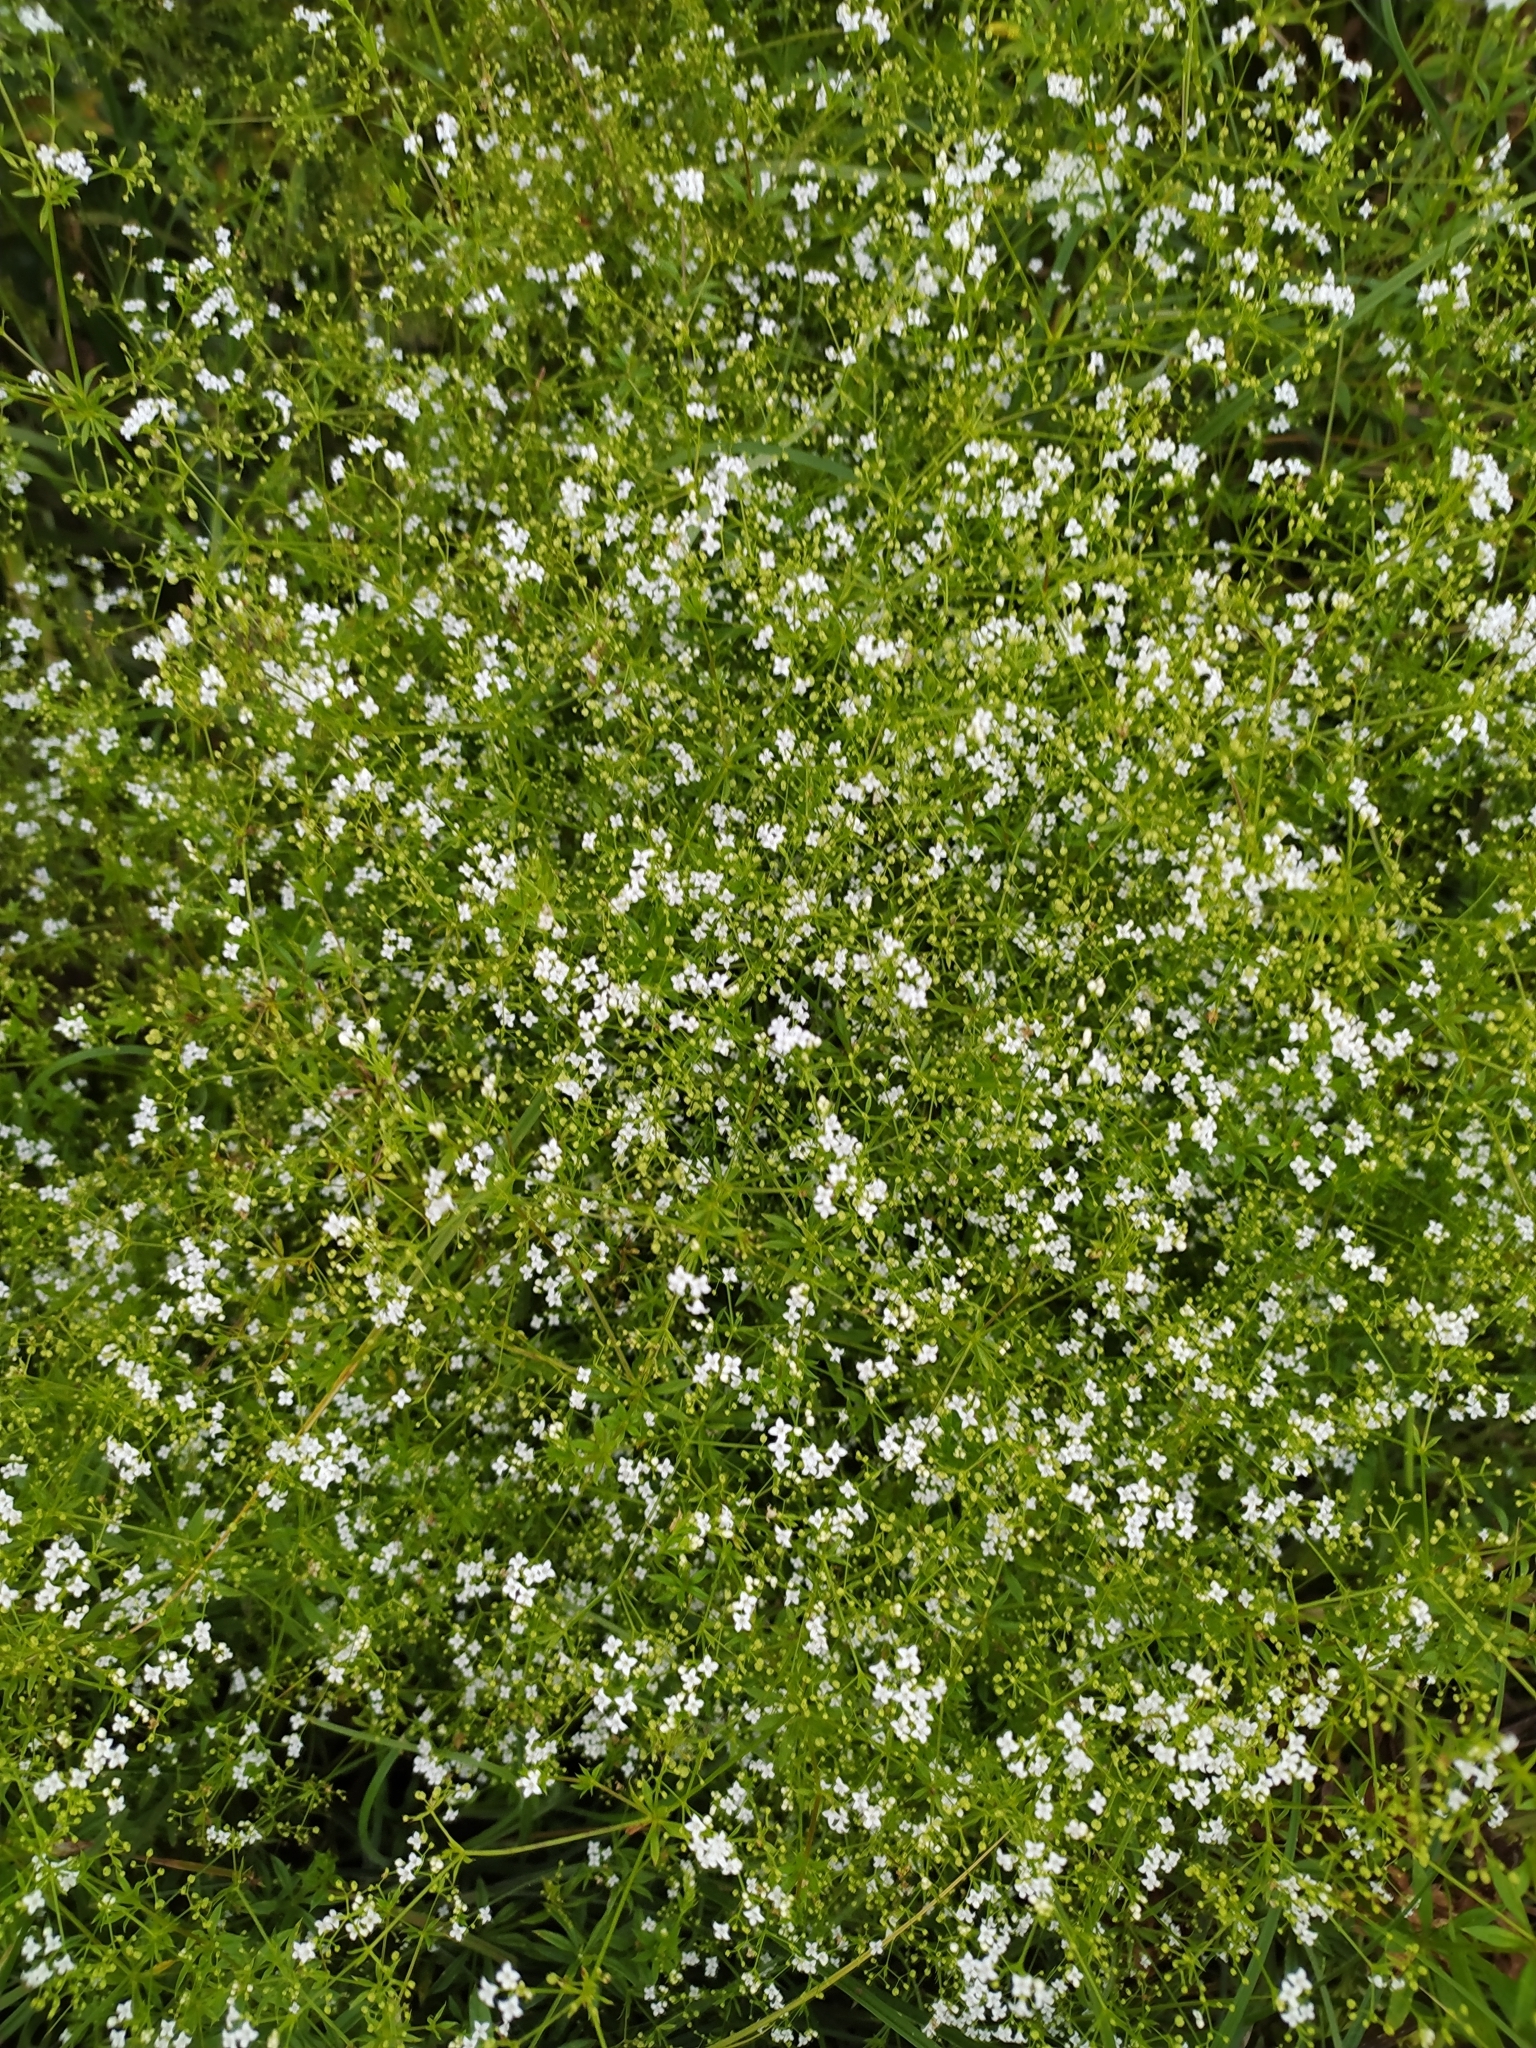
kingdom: Plantae
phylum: Tracheophyta
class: Magnoliopsida
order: Gentianales
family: Rubiaceae
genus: Galium
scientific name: Galium rivale
